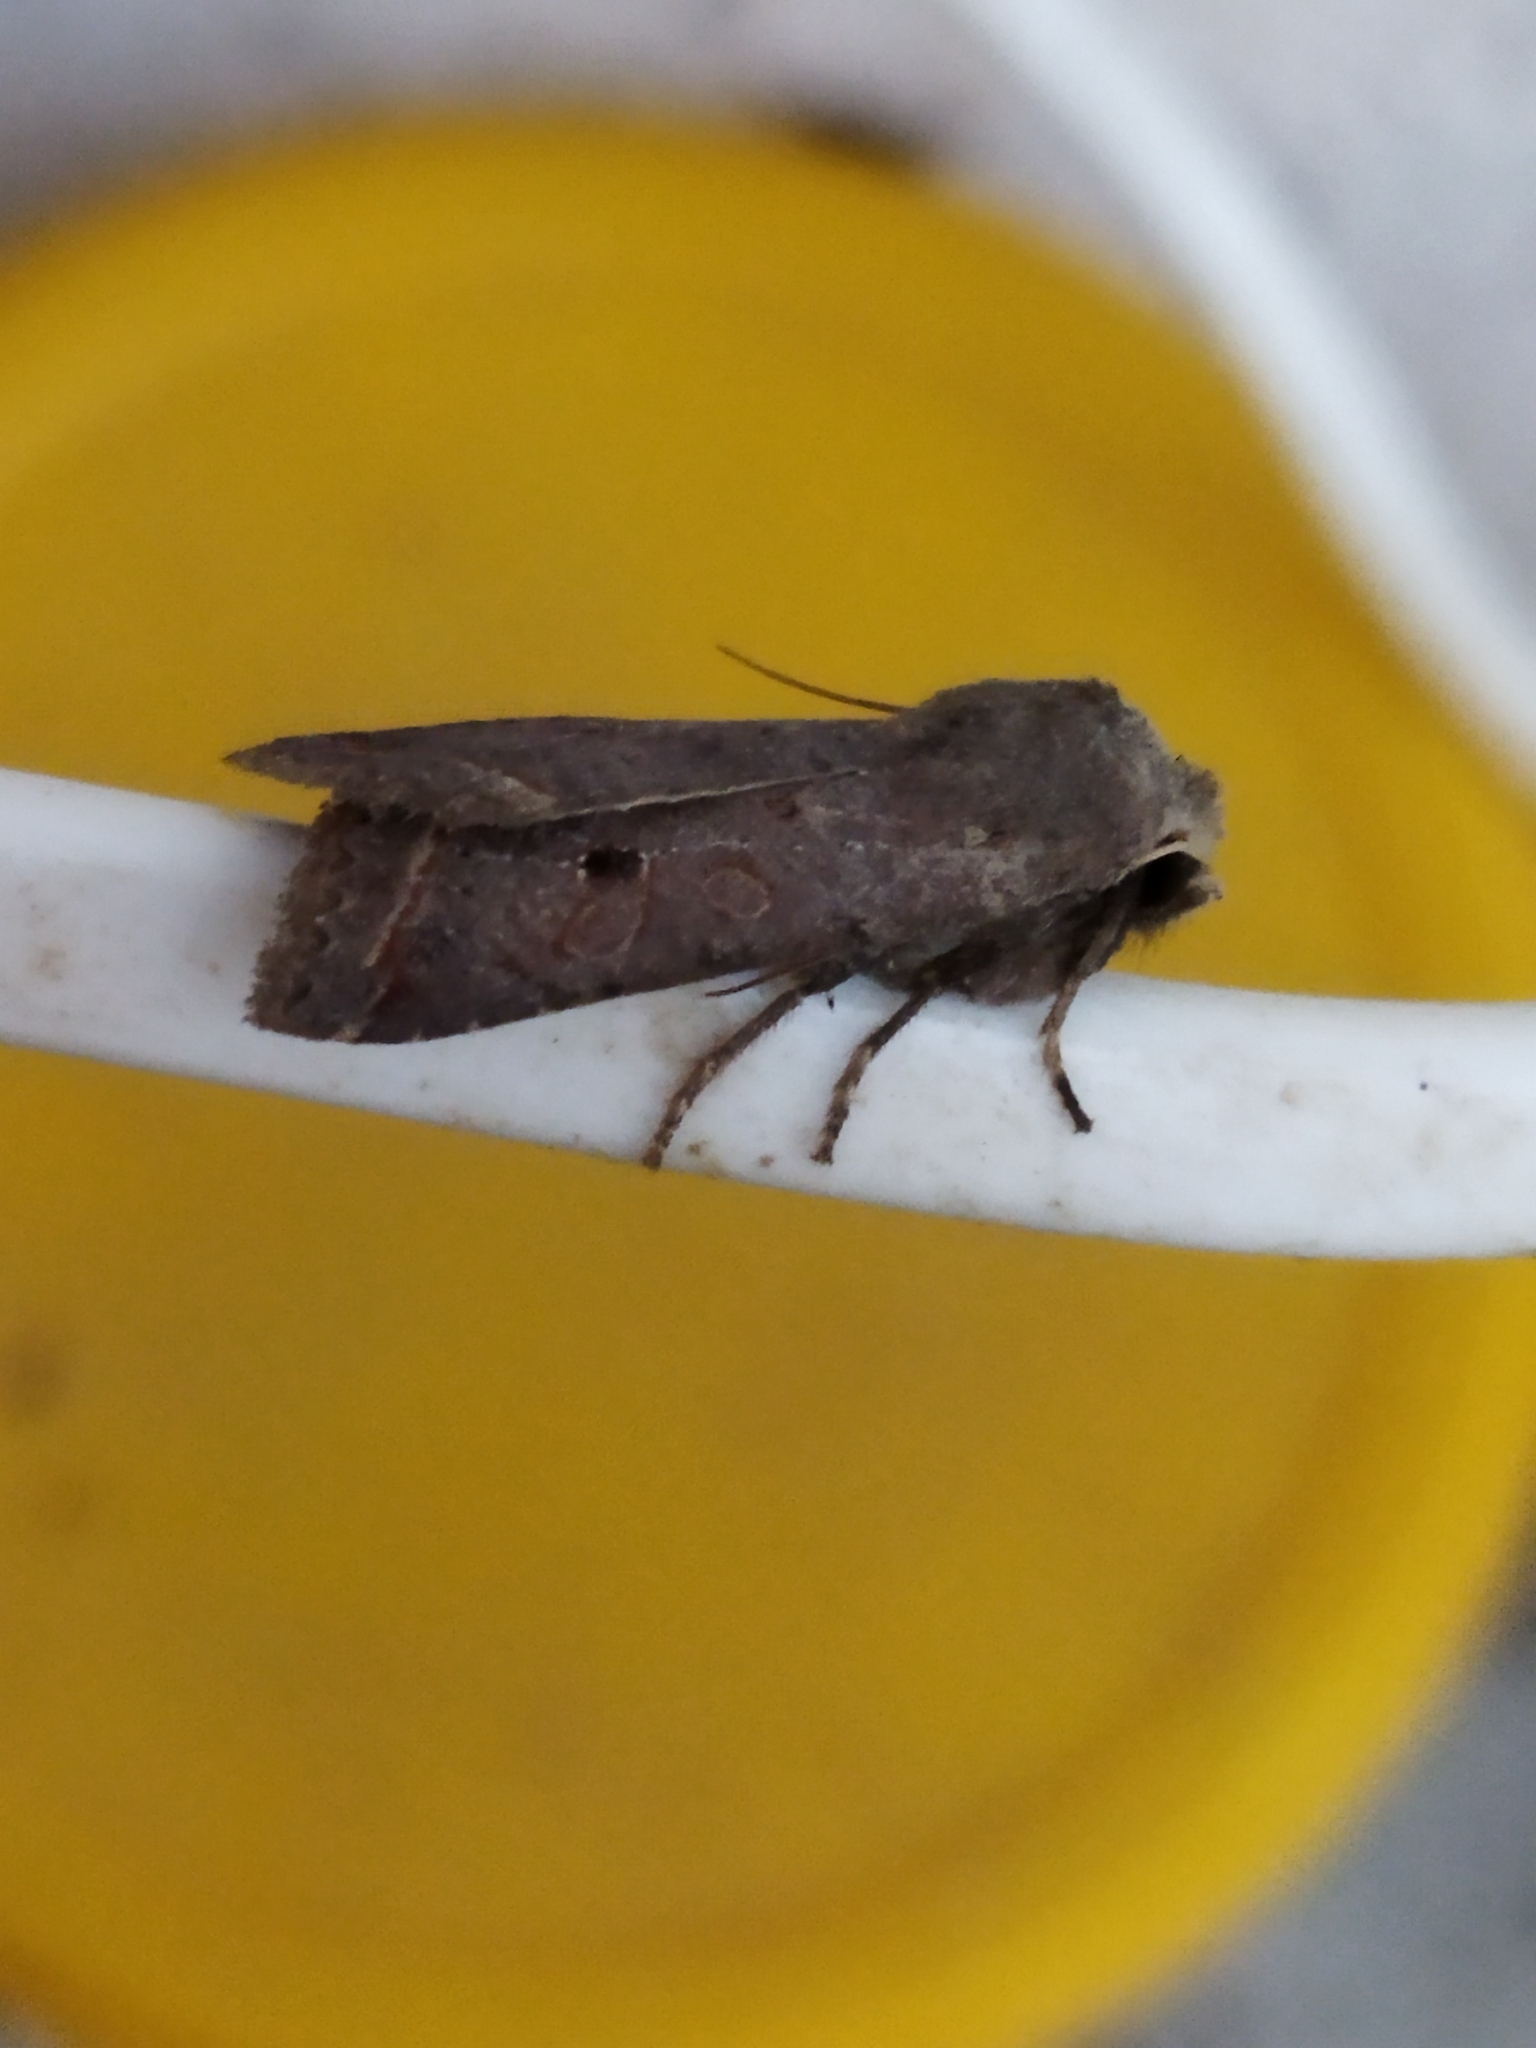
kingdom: Animalia
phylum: Arthropoda
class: Insecta
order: Lepidoptera
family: Noctuidae
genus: Agrochola
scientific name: Agrochola lota
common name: Red-line quaker
